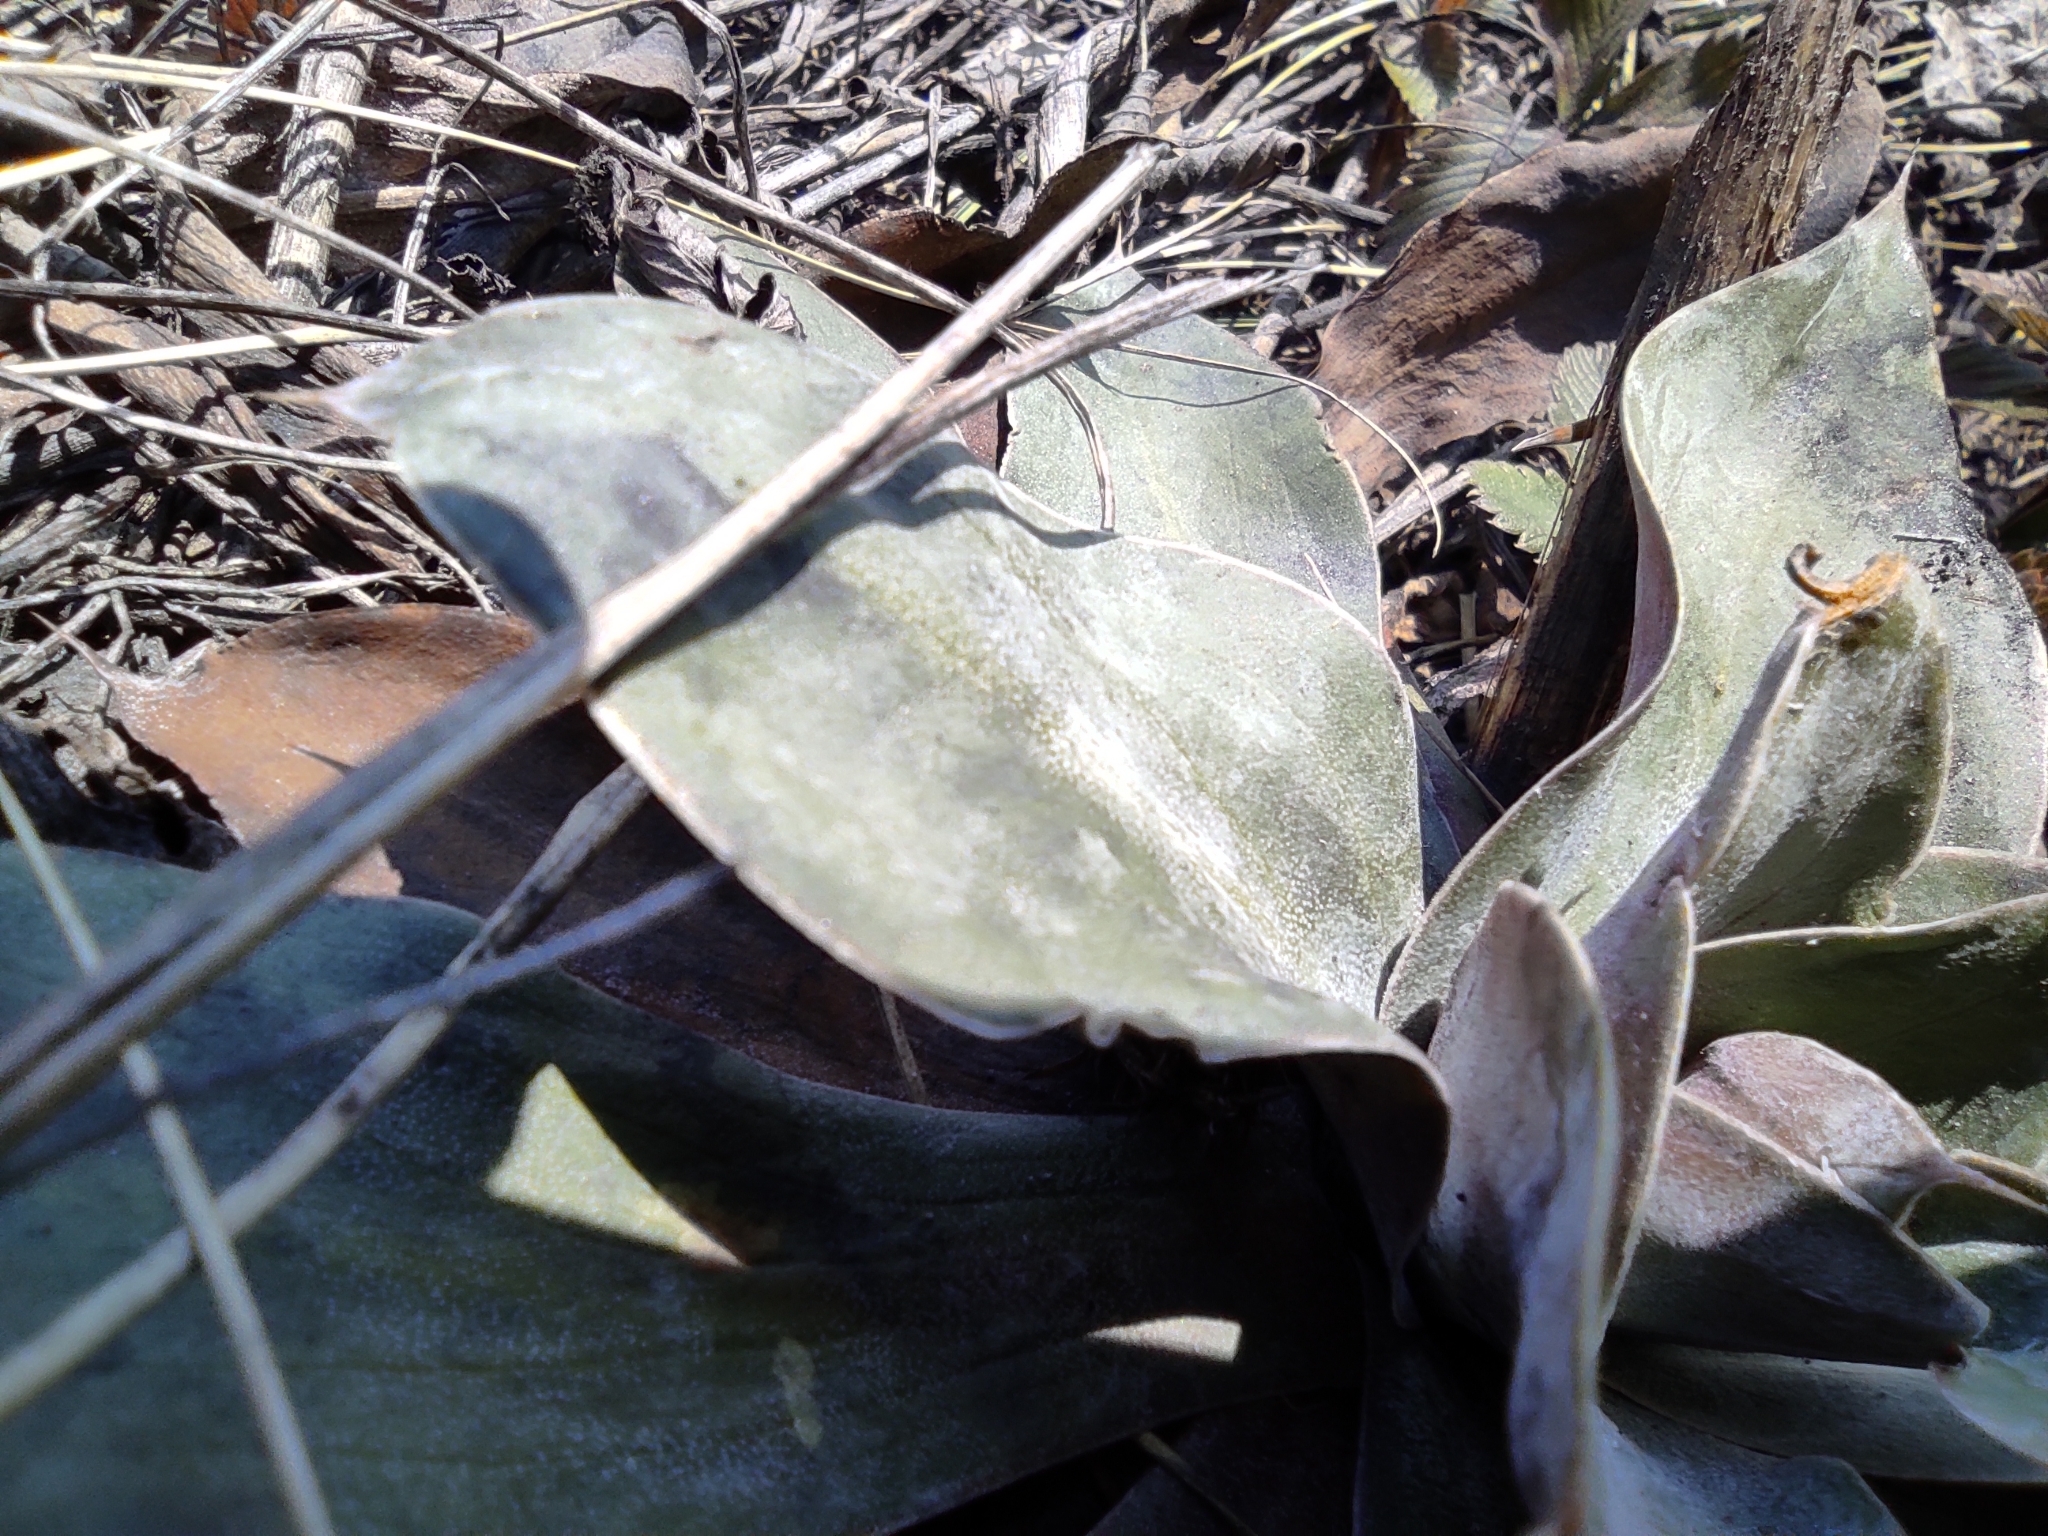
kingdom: Plantae
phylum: Tracheophyta
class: Magnoliopsida
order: Caryophyllales
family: Plumbaginaceae
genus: Goniolimon
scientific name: Goniolimon speciosum
